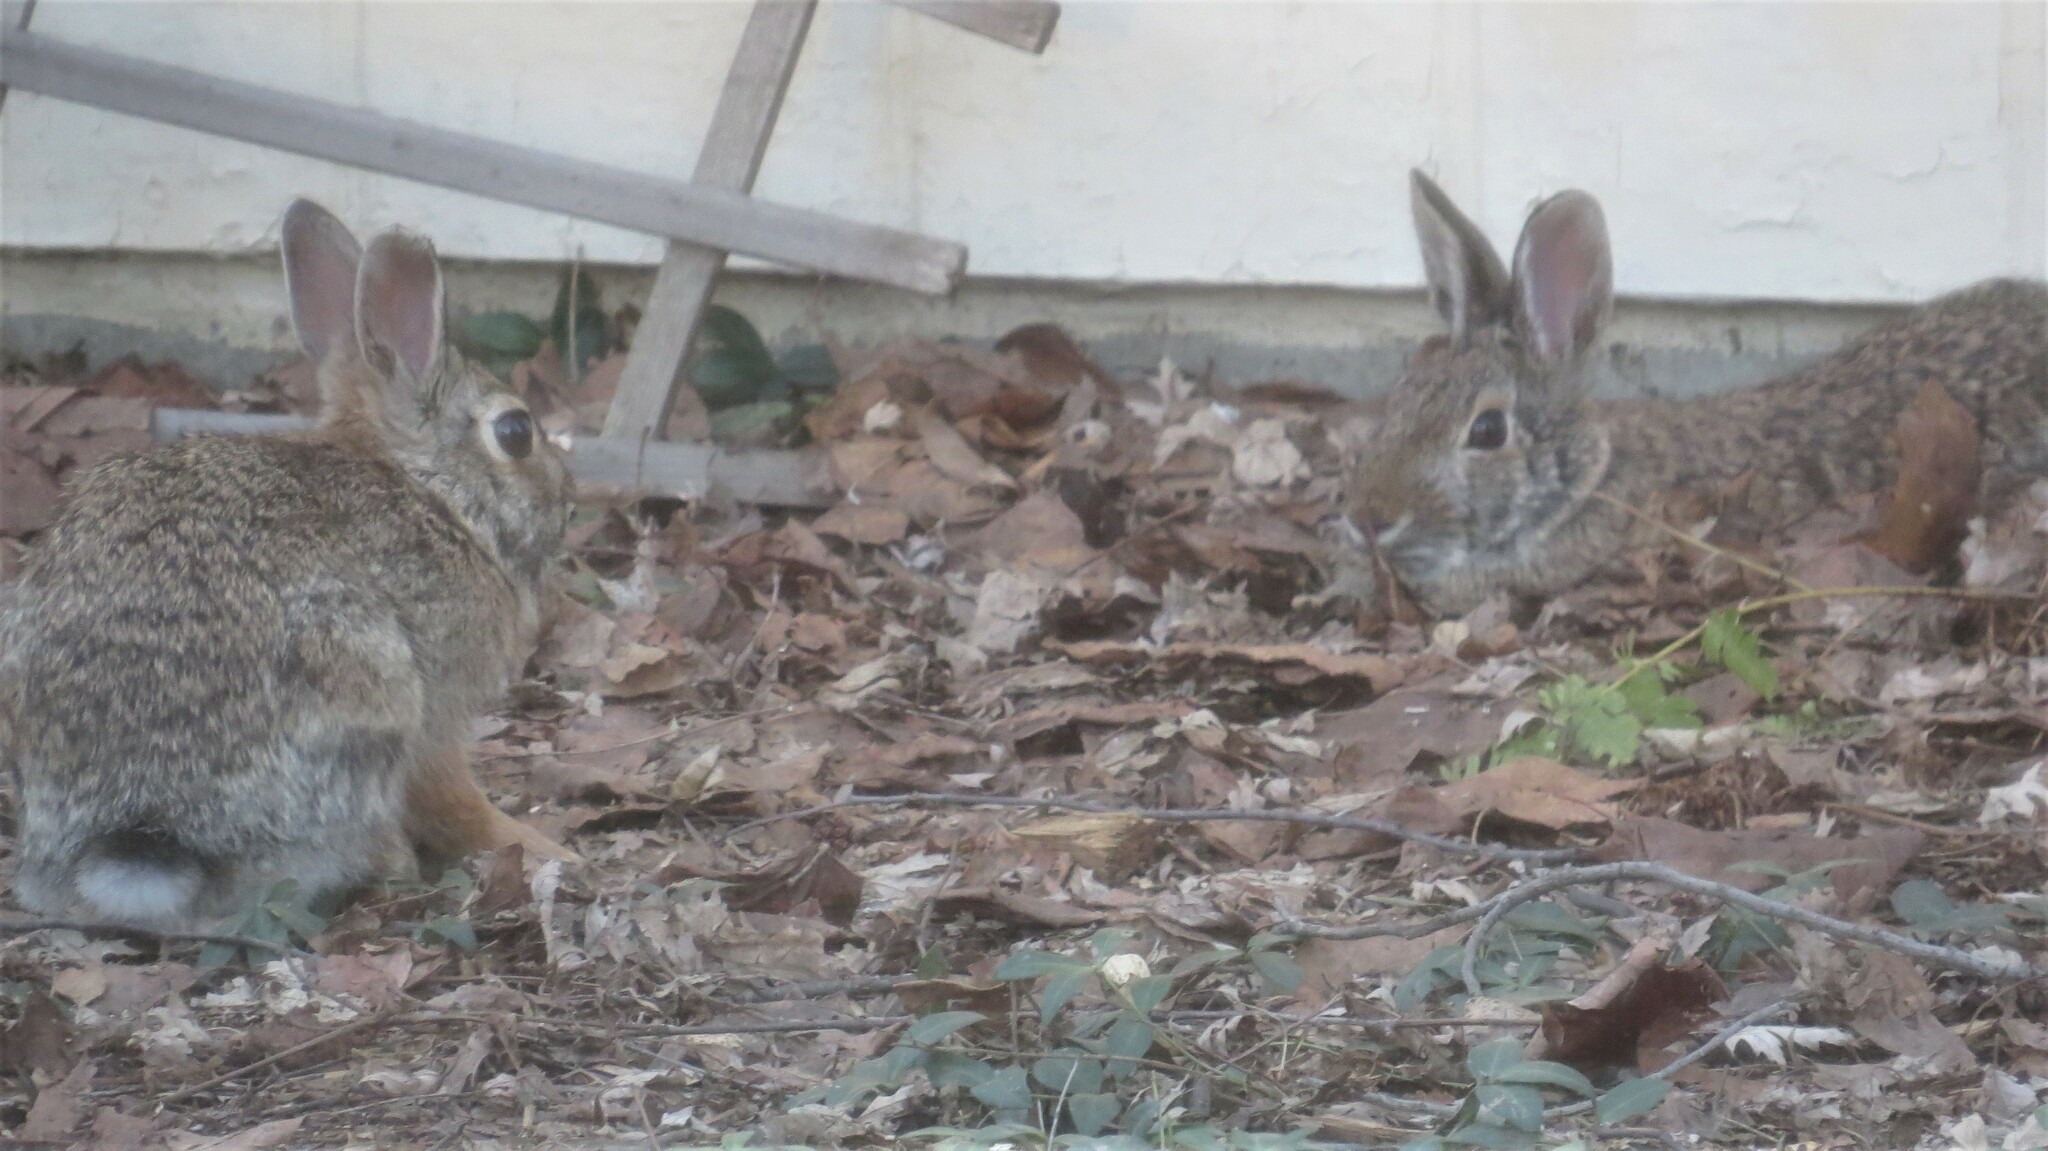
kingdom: Animalia
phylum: Chordata
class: Mammalia
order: Lagomorpha
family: Leporidae
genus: Sylvilagus
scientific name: Sylvilagus floridanus
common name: Eastern cottontail
